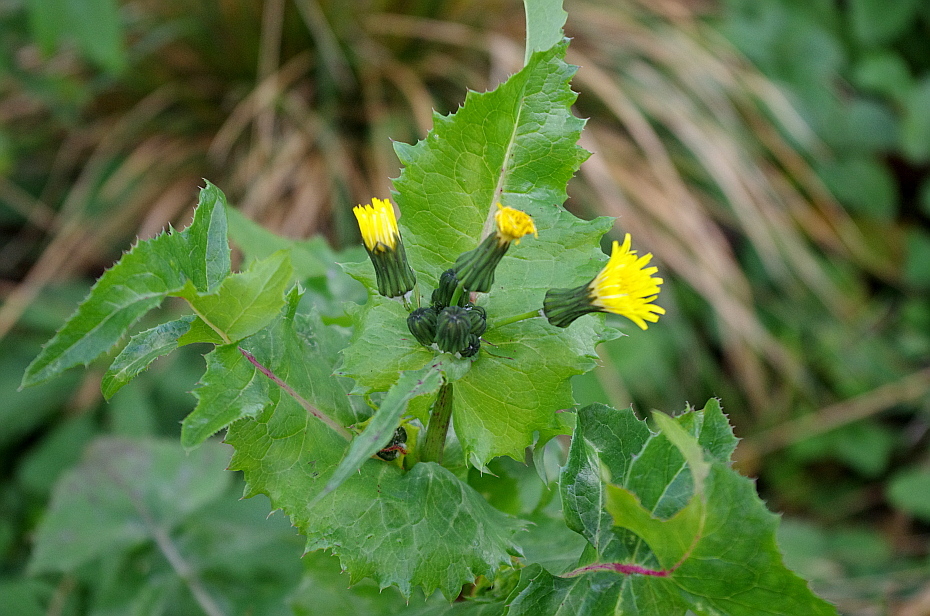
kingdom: Plantae
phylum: Tracheophyta
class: Magnoliopsida
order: Asterales
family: Asteraceae
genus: Sonchus
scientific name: Sonchus oleraceus
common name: Common sowthistle
